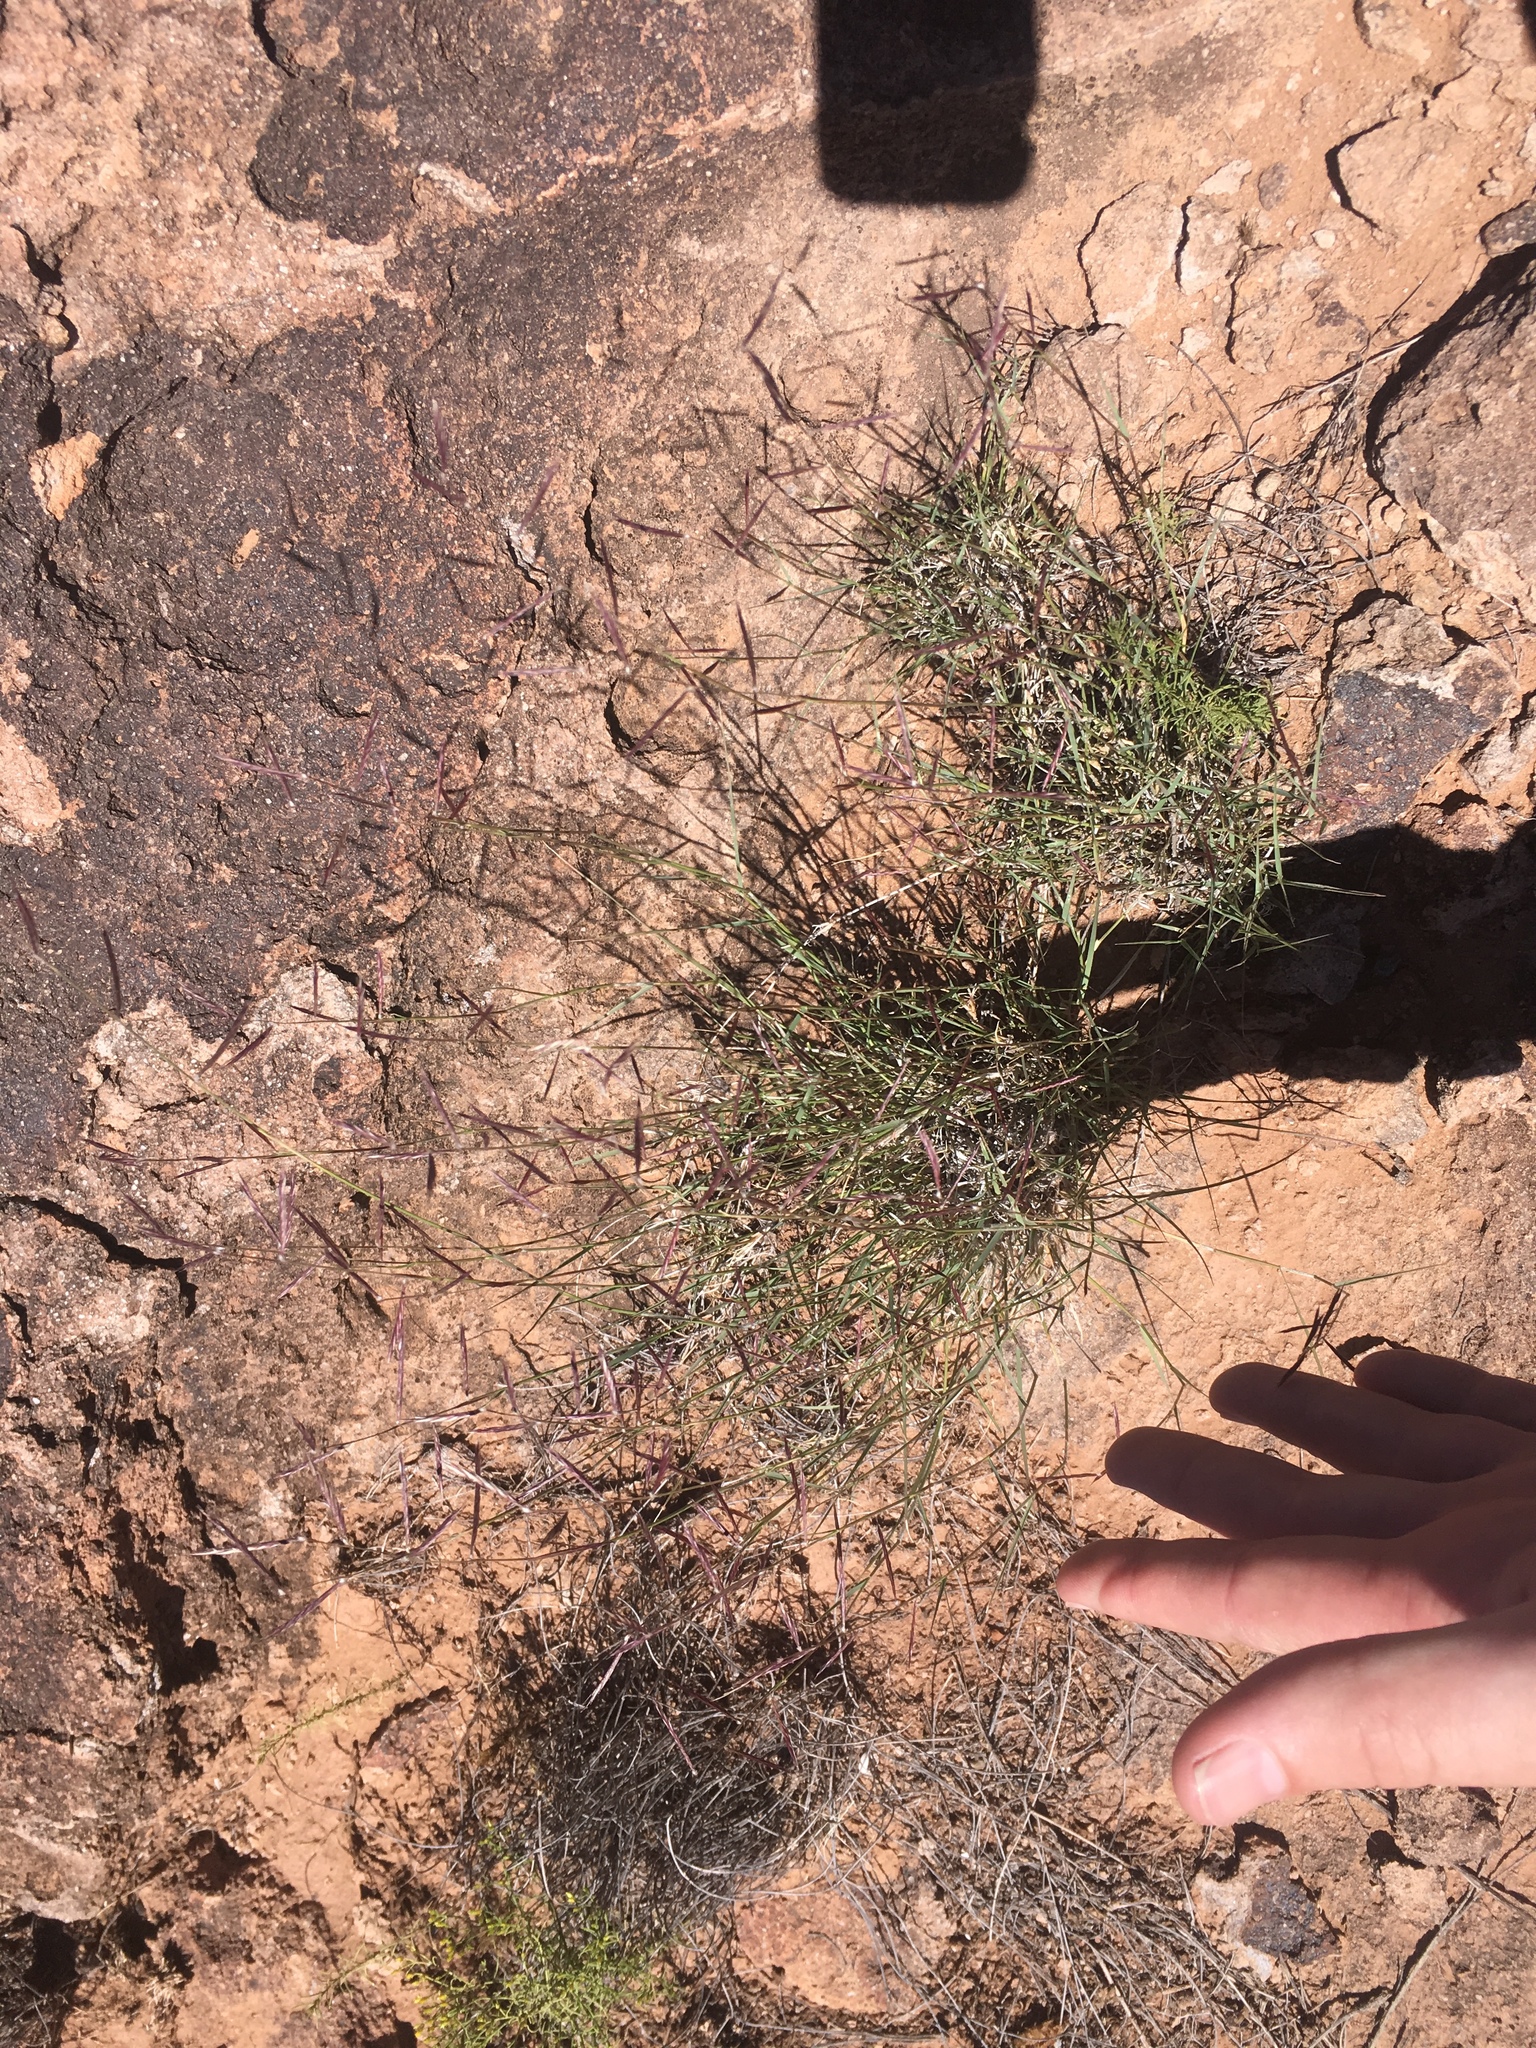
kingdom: Plantae
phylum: Tracheophyta
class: Liliopsida
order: Poales
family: Poaceae
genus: Bouteloua
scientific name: Bouteloua eriopoda
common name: Woolly foot grama
